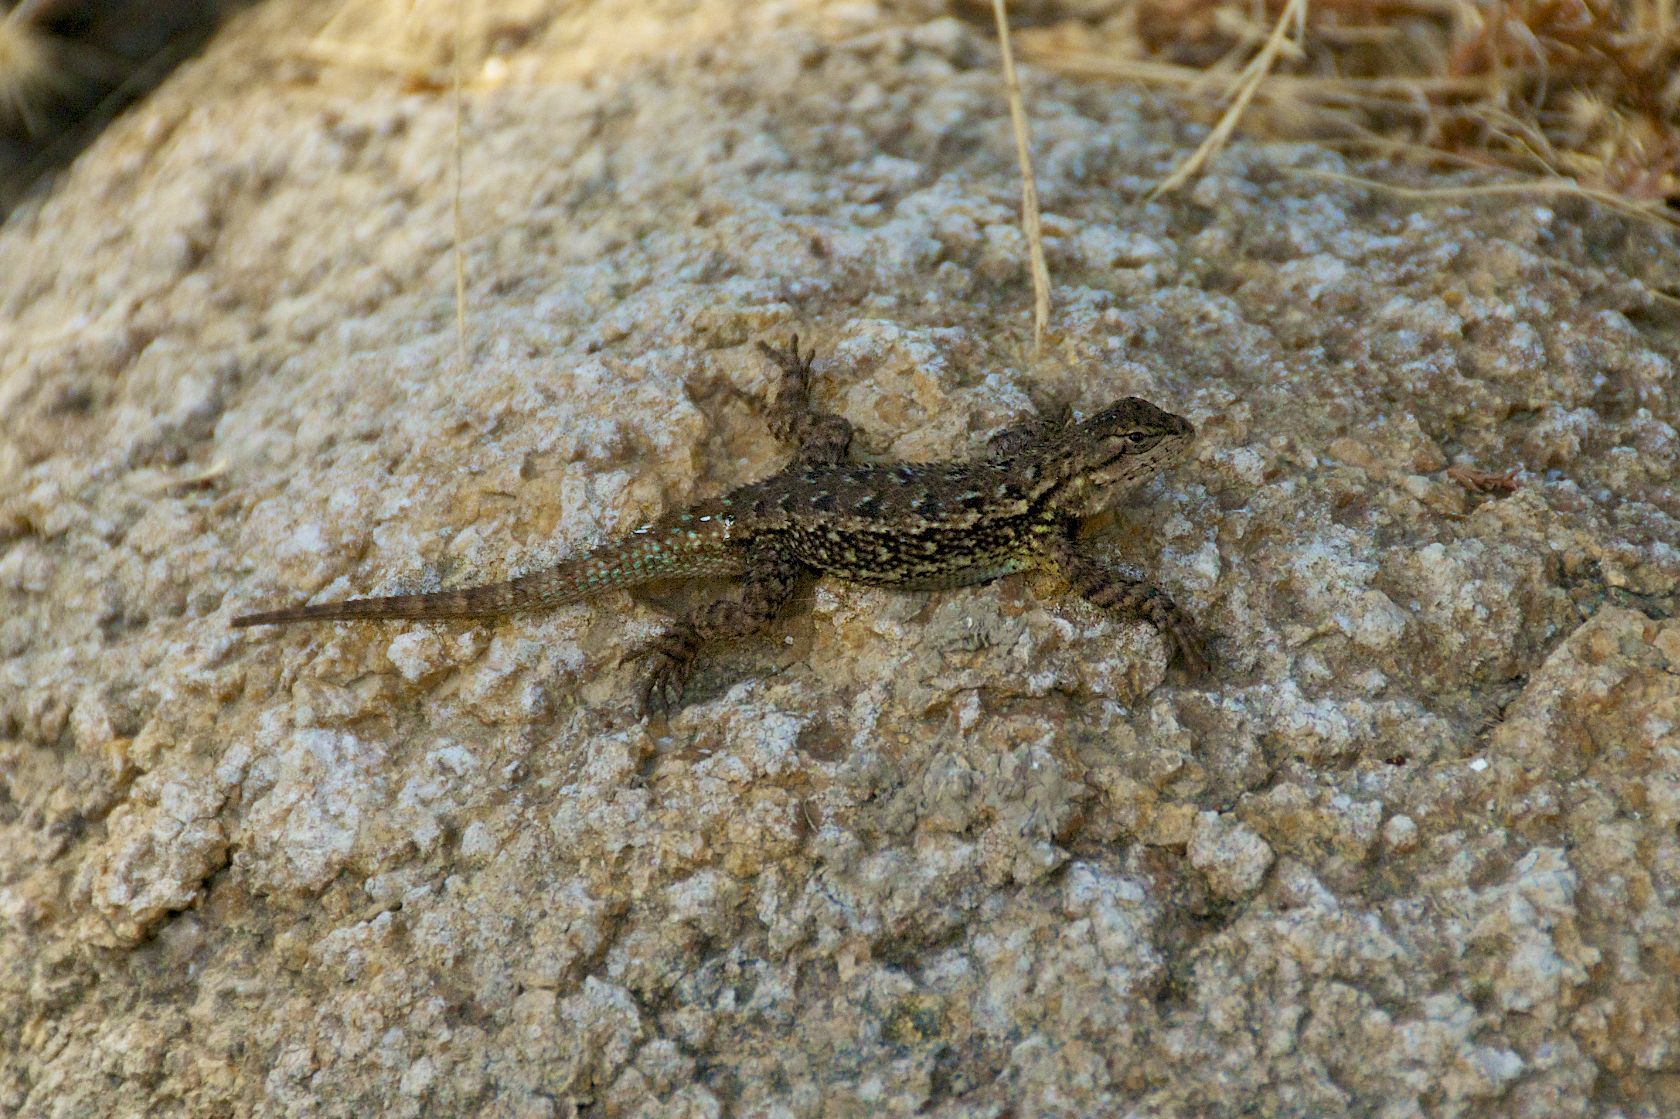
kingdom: Animalia
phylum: Chordata
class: Squamata
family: Phrynosomatidae
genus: Sceloporus
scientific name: Sceloporus occidentalis
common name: Western fence lizard
